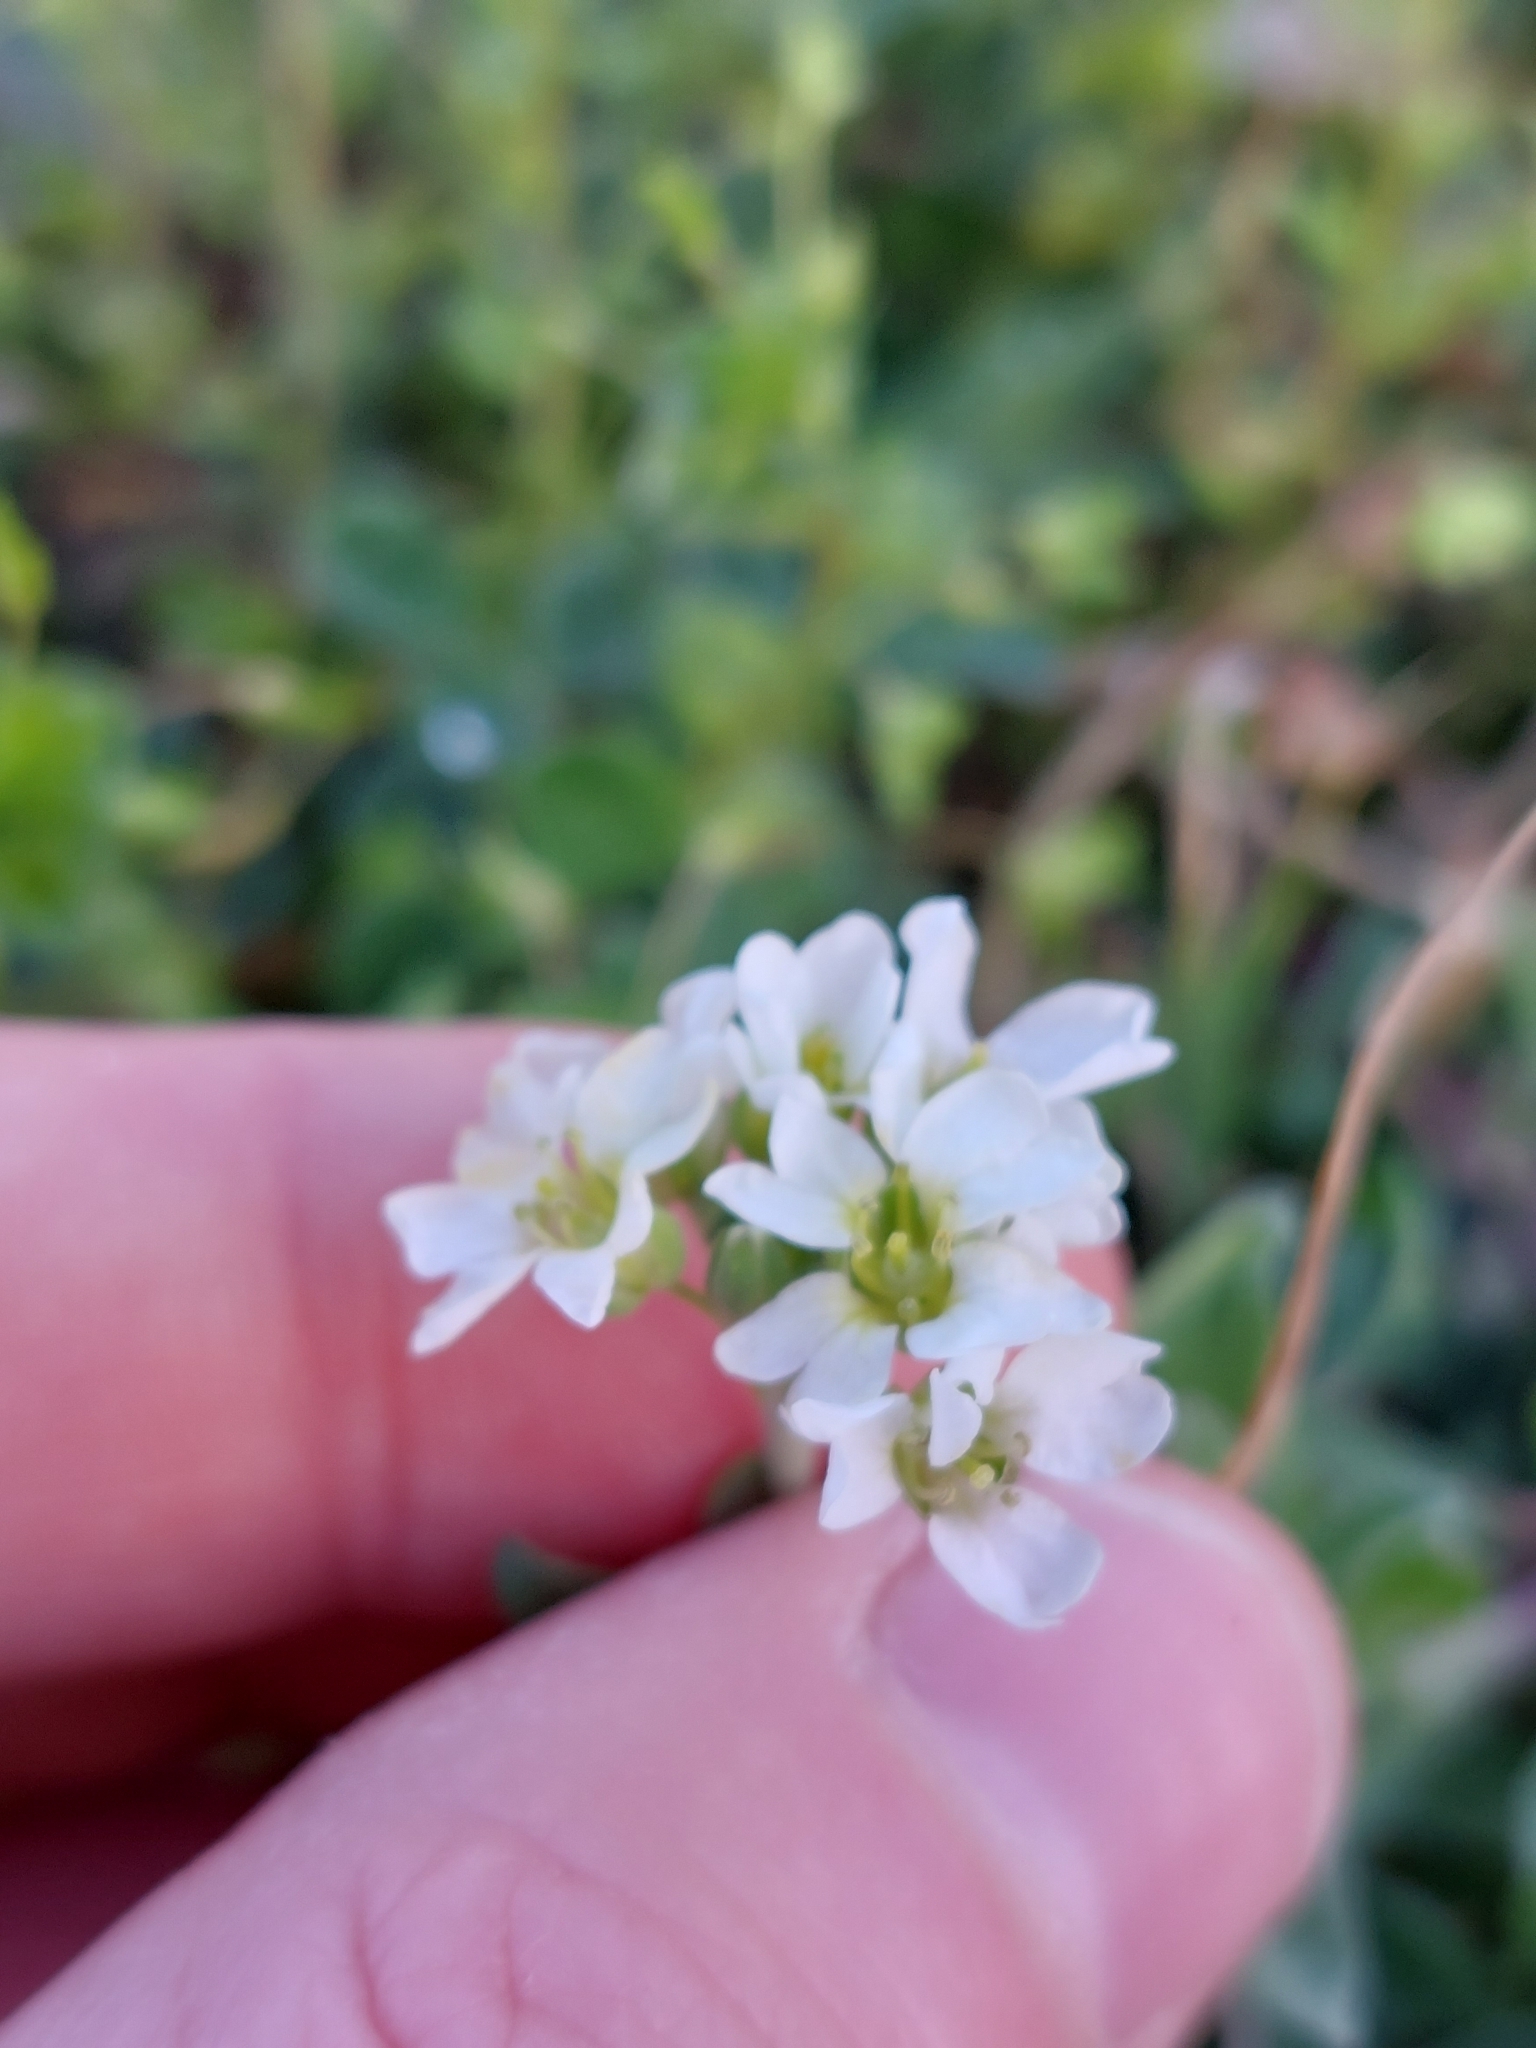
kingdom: Plantae
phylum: Tracheophyta
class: Magnoliopsida
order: Brassicales
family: Brassicaceae
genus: Berteroa
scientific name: Berteroa incana
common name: Hoary alison
